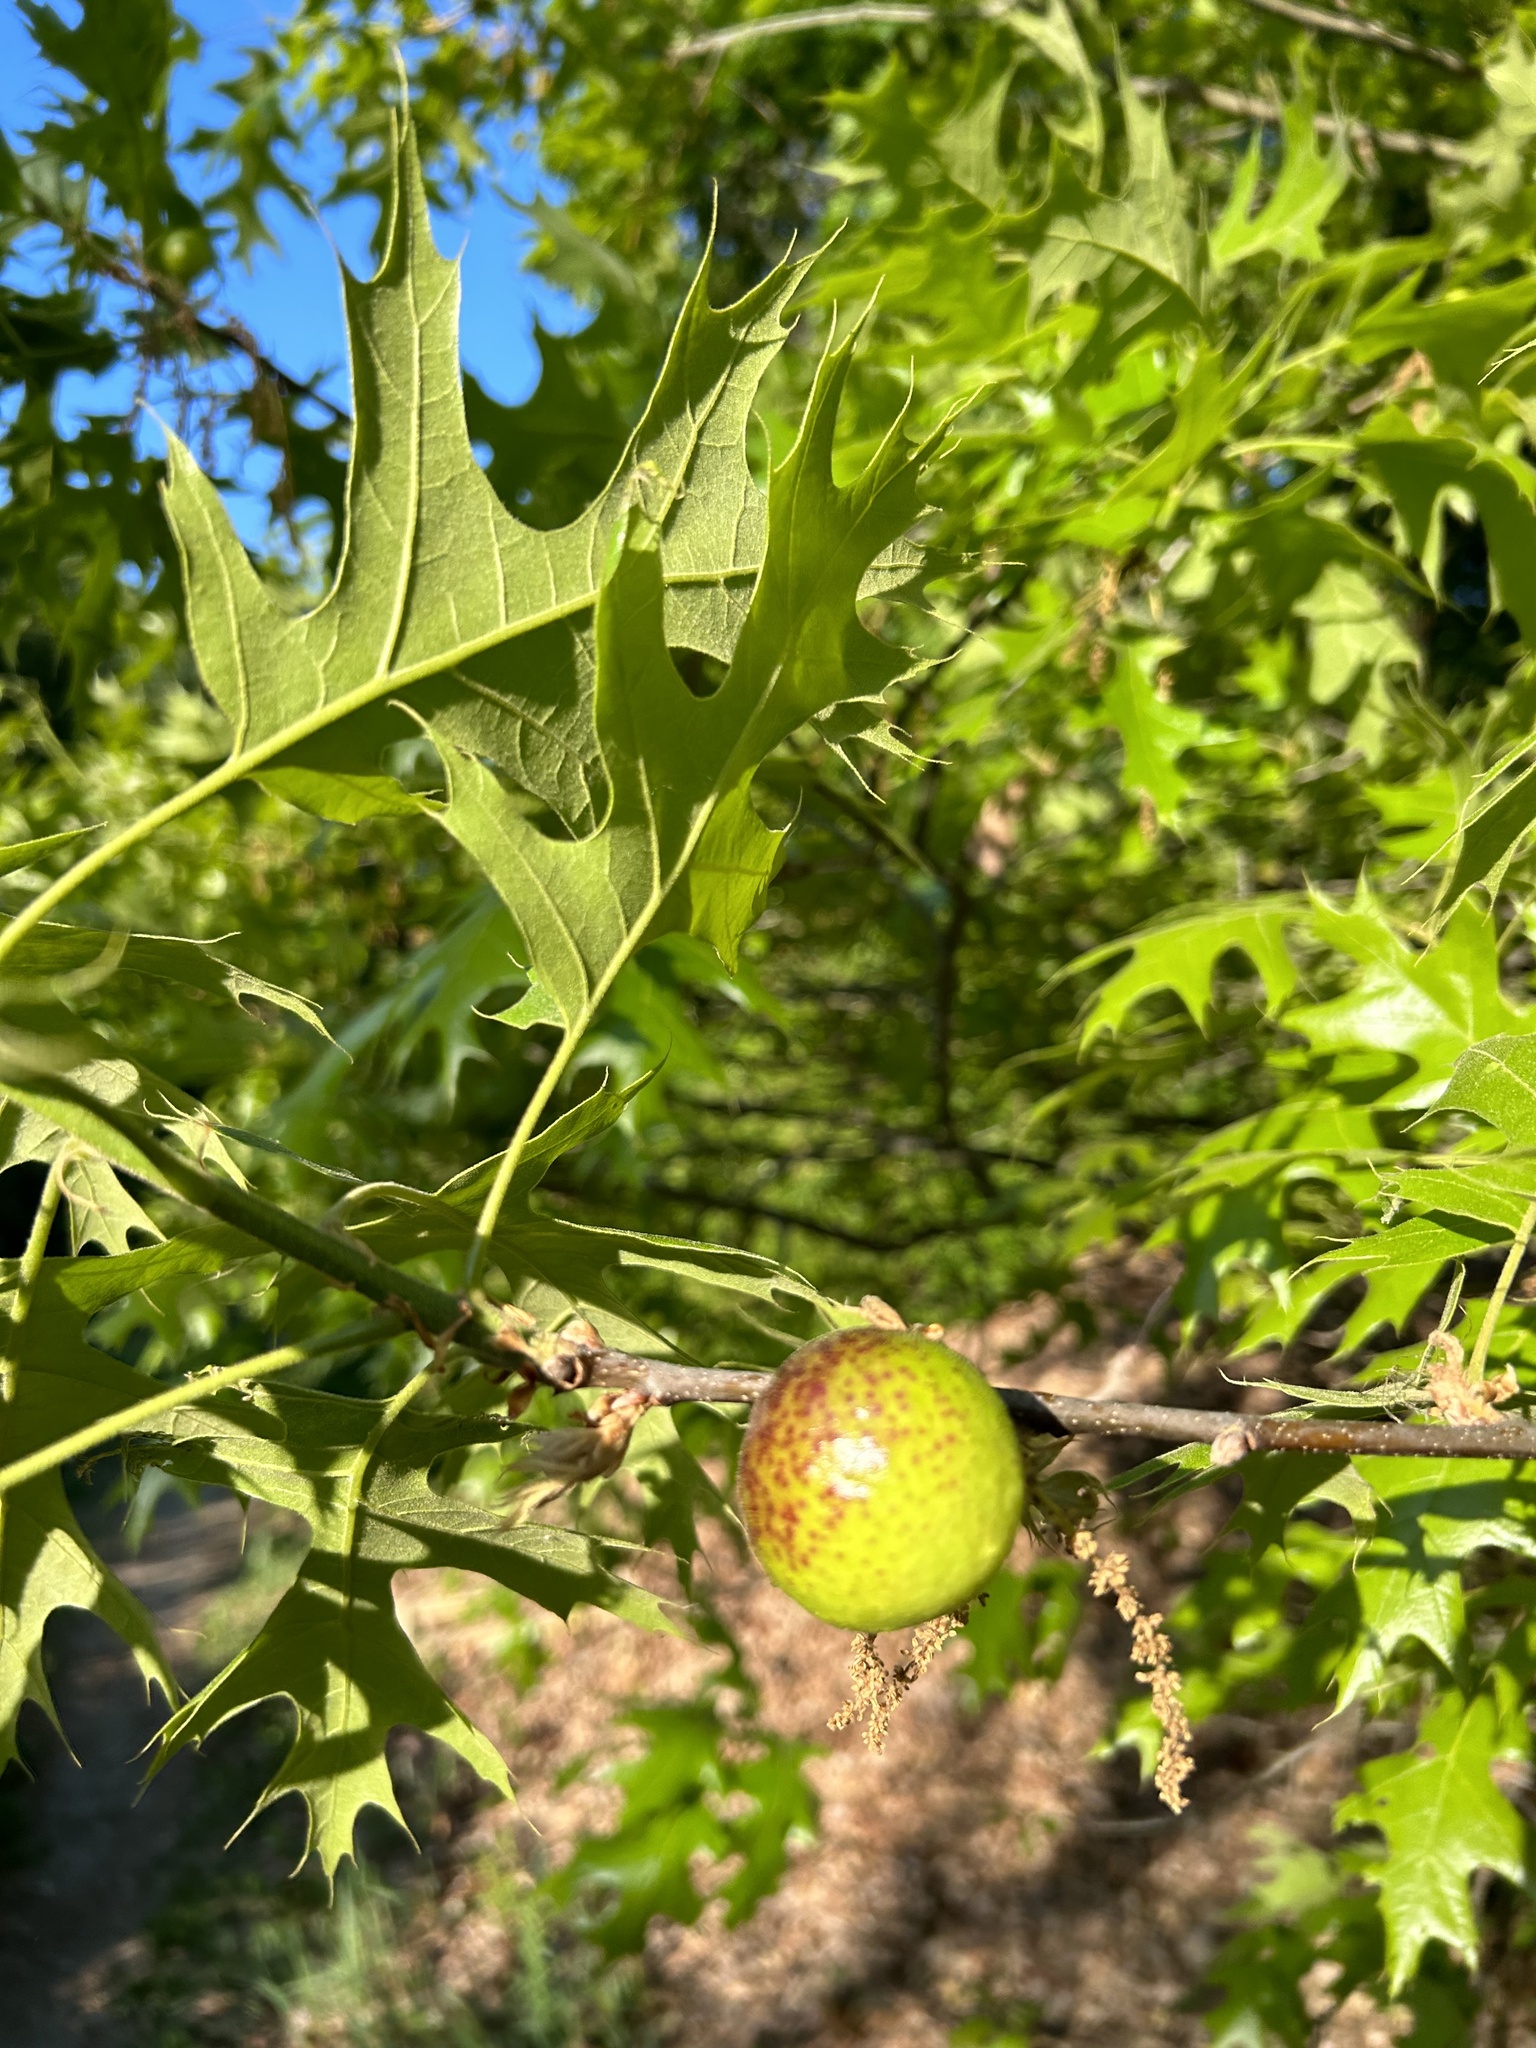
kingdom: Animalia
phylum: Arthropoda
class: Insecta
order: Hymenoptera
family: Cynipidae
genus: Amphibolips
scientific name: Amphibolips
